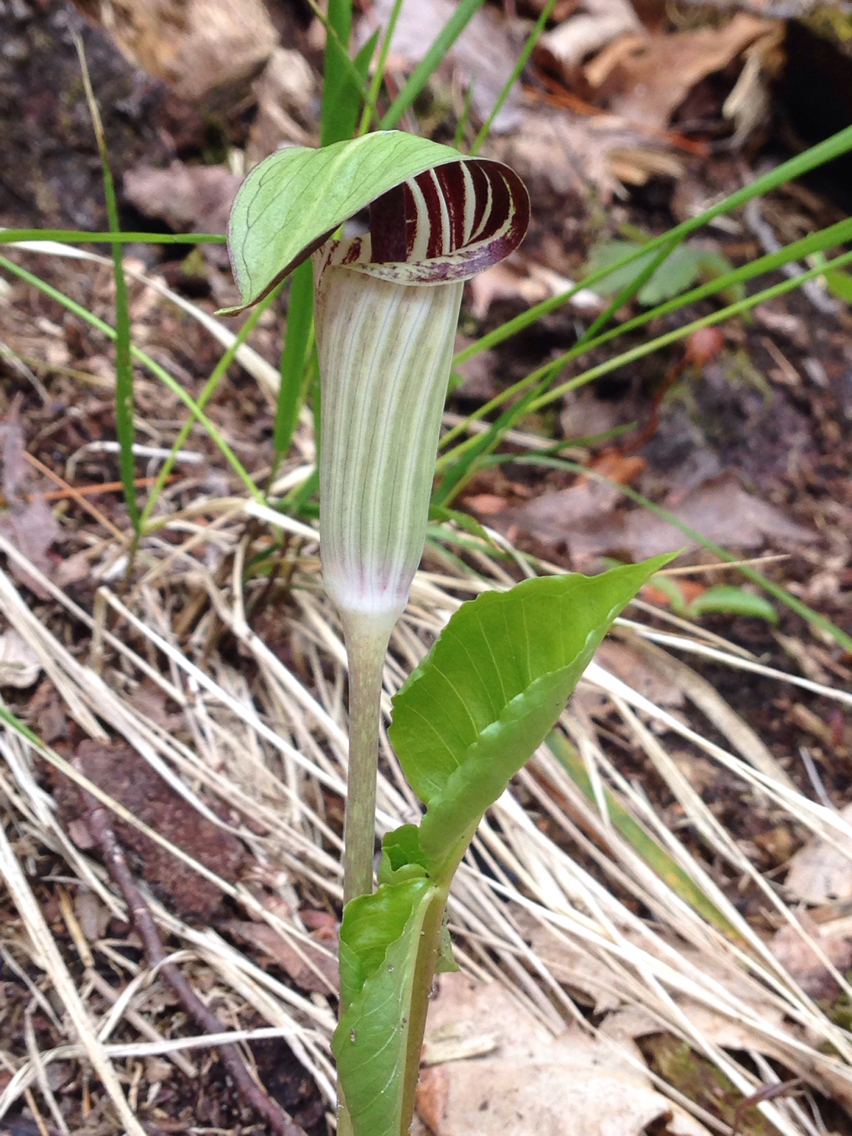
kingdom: Plantae
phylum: Tracheophyta
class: Liliopsida
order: Alismatales
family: Araceae
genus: Arisaema
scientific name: Arisaema triphyllum
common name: Jack-in-the-pulpit
